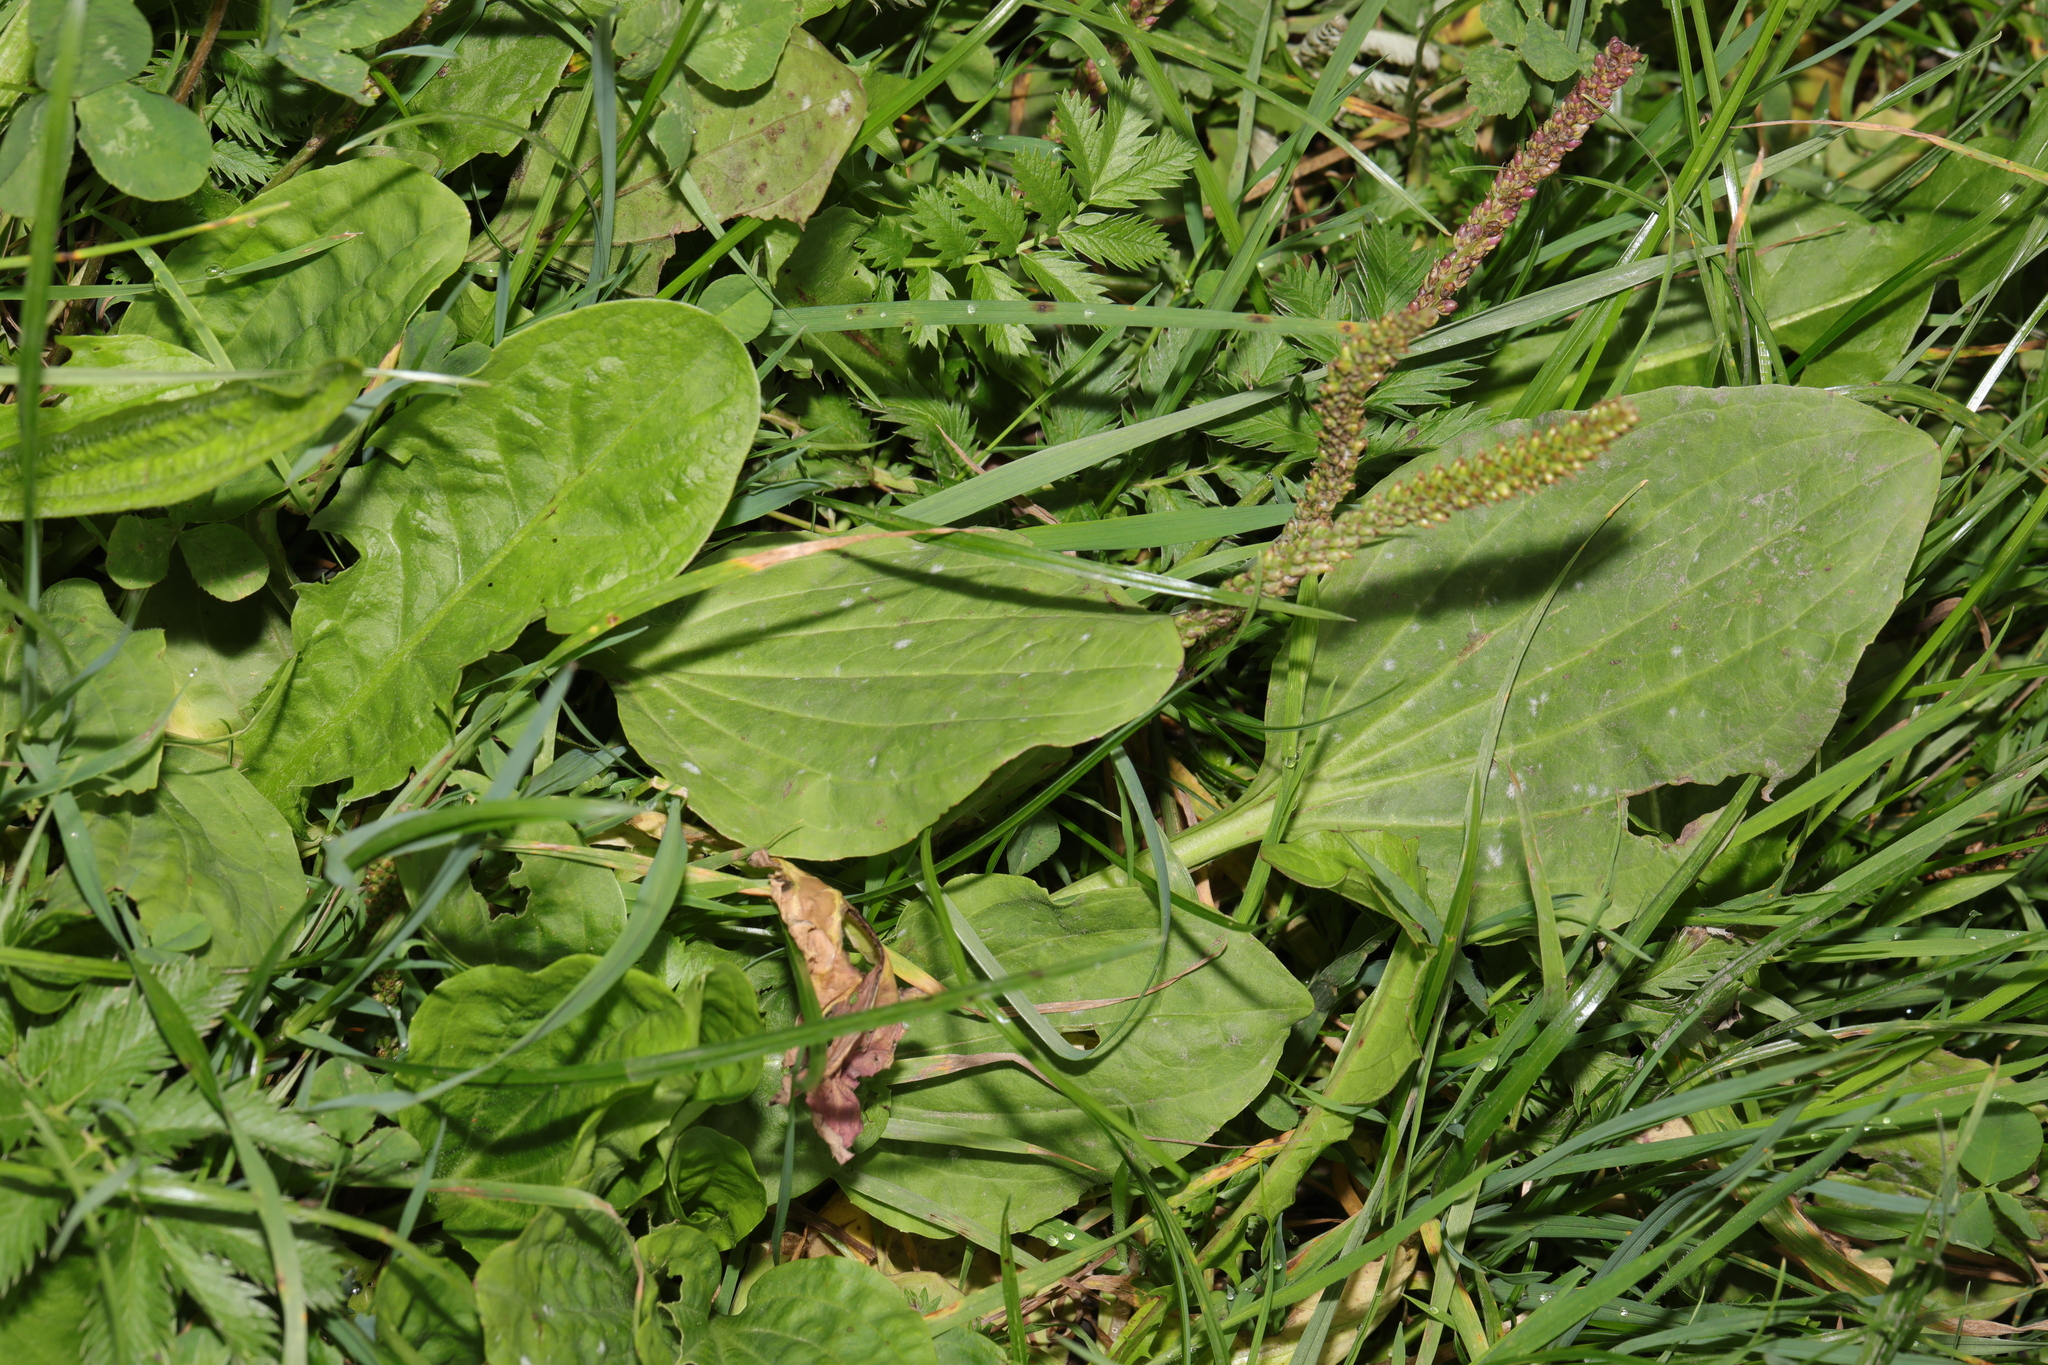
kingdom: Plantae
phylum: Tracheophyta
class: Magnoliopsida
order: Lamiales
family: Plantaginaceae
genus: Plantago
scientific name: Plantago major
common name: Common plantain
